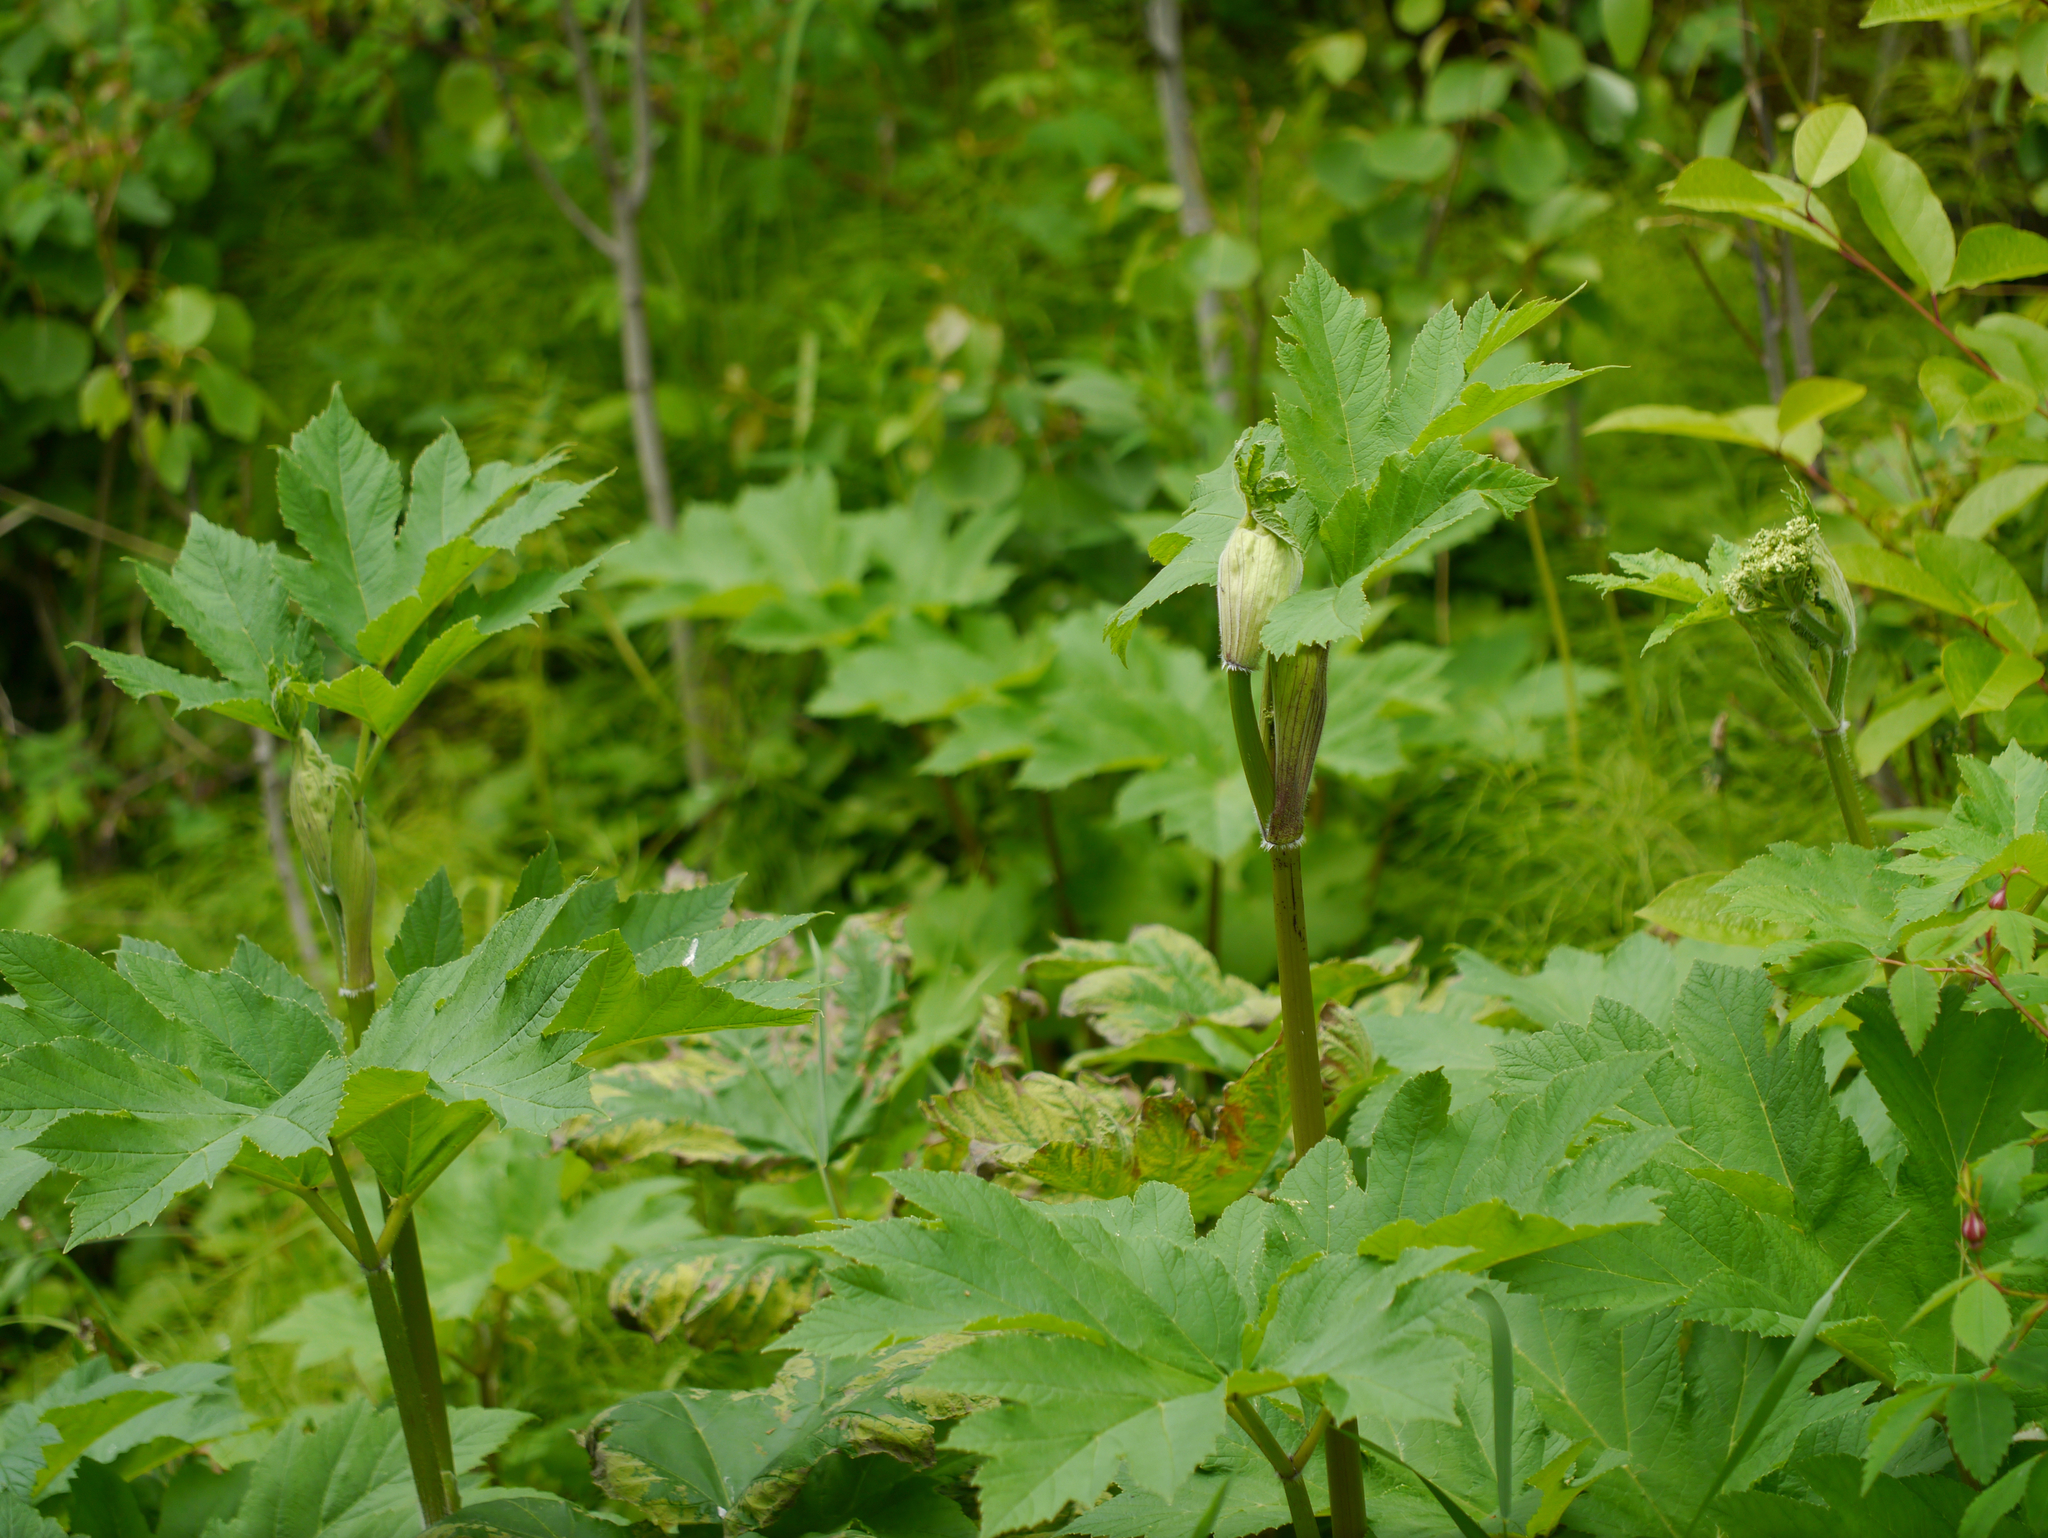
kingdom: Plantae
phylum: Tracheophyta
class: Magnoliopsida
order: Apiales
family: Apiaceae
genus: Heracleum
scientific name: Heracleum maximum
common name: American cow parsnip
